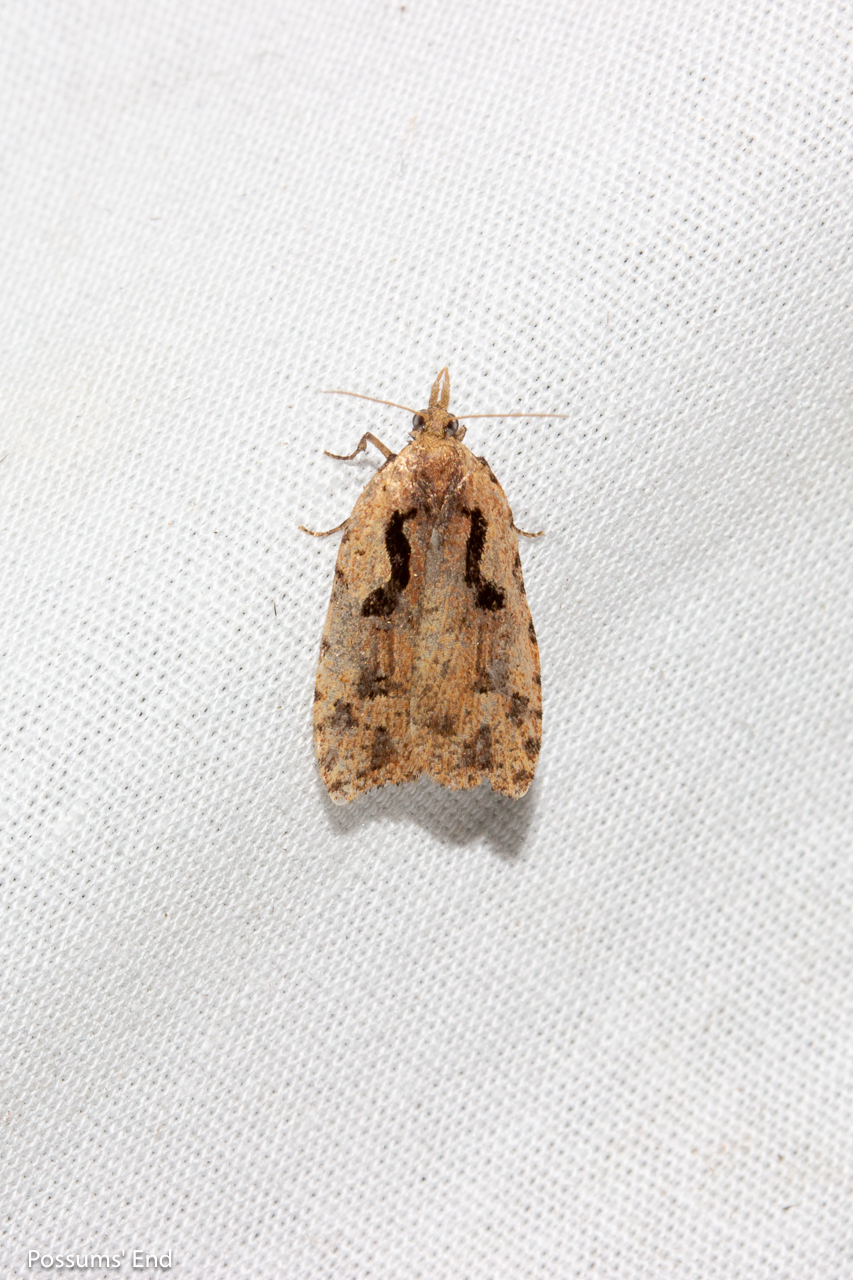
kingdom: Animalia
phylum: Arthropoda
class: Insecta
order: Lepidoptera
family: Tortricidae
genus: Cnephasia
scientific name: Cnephasia jactatana
